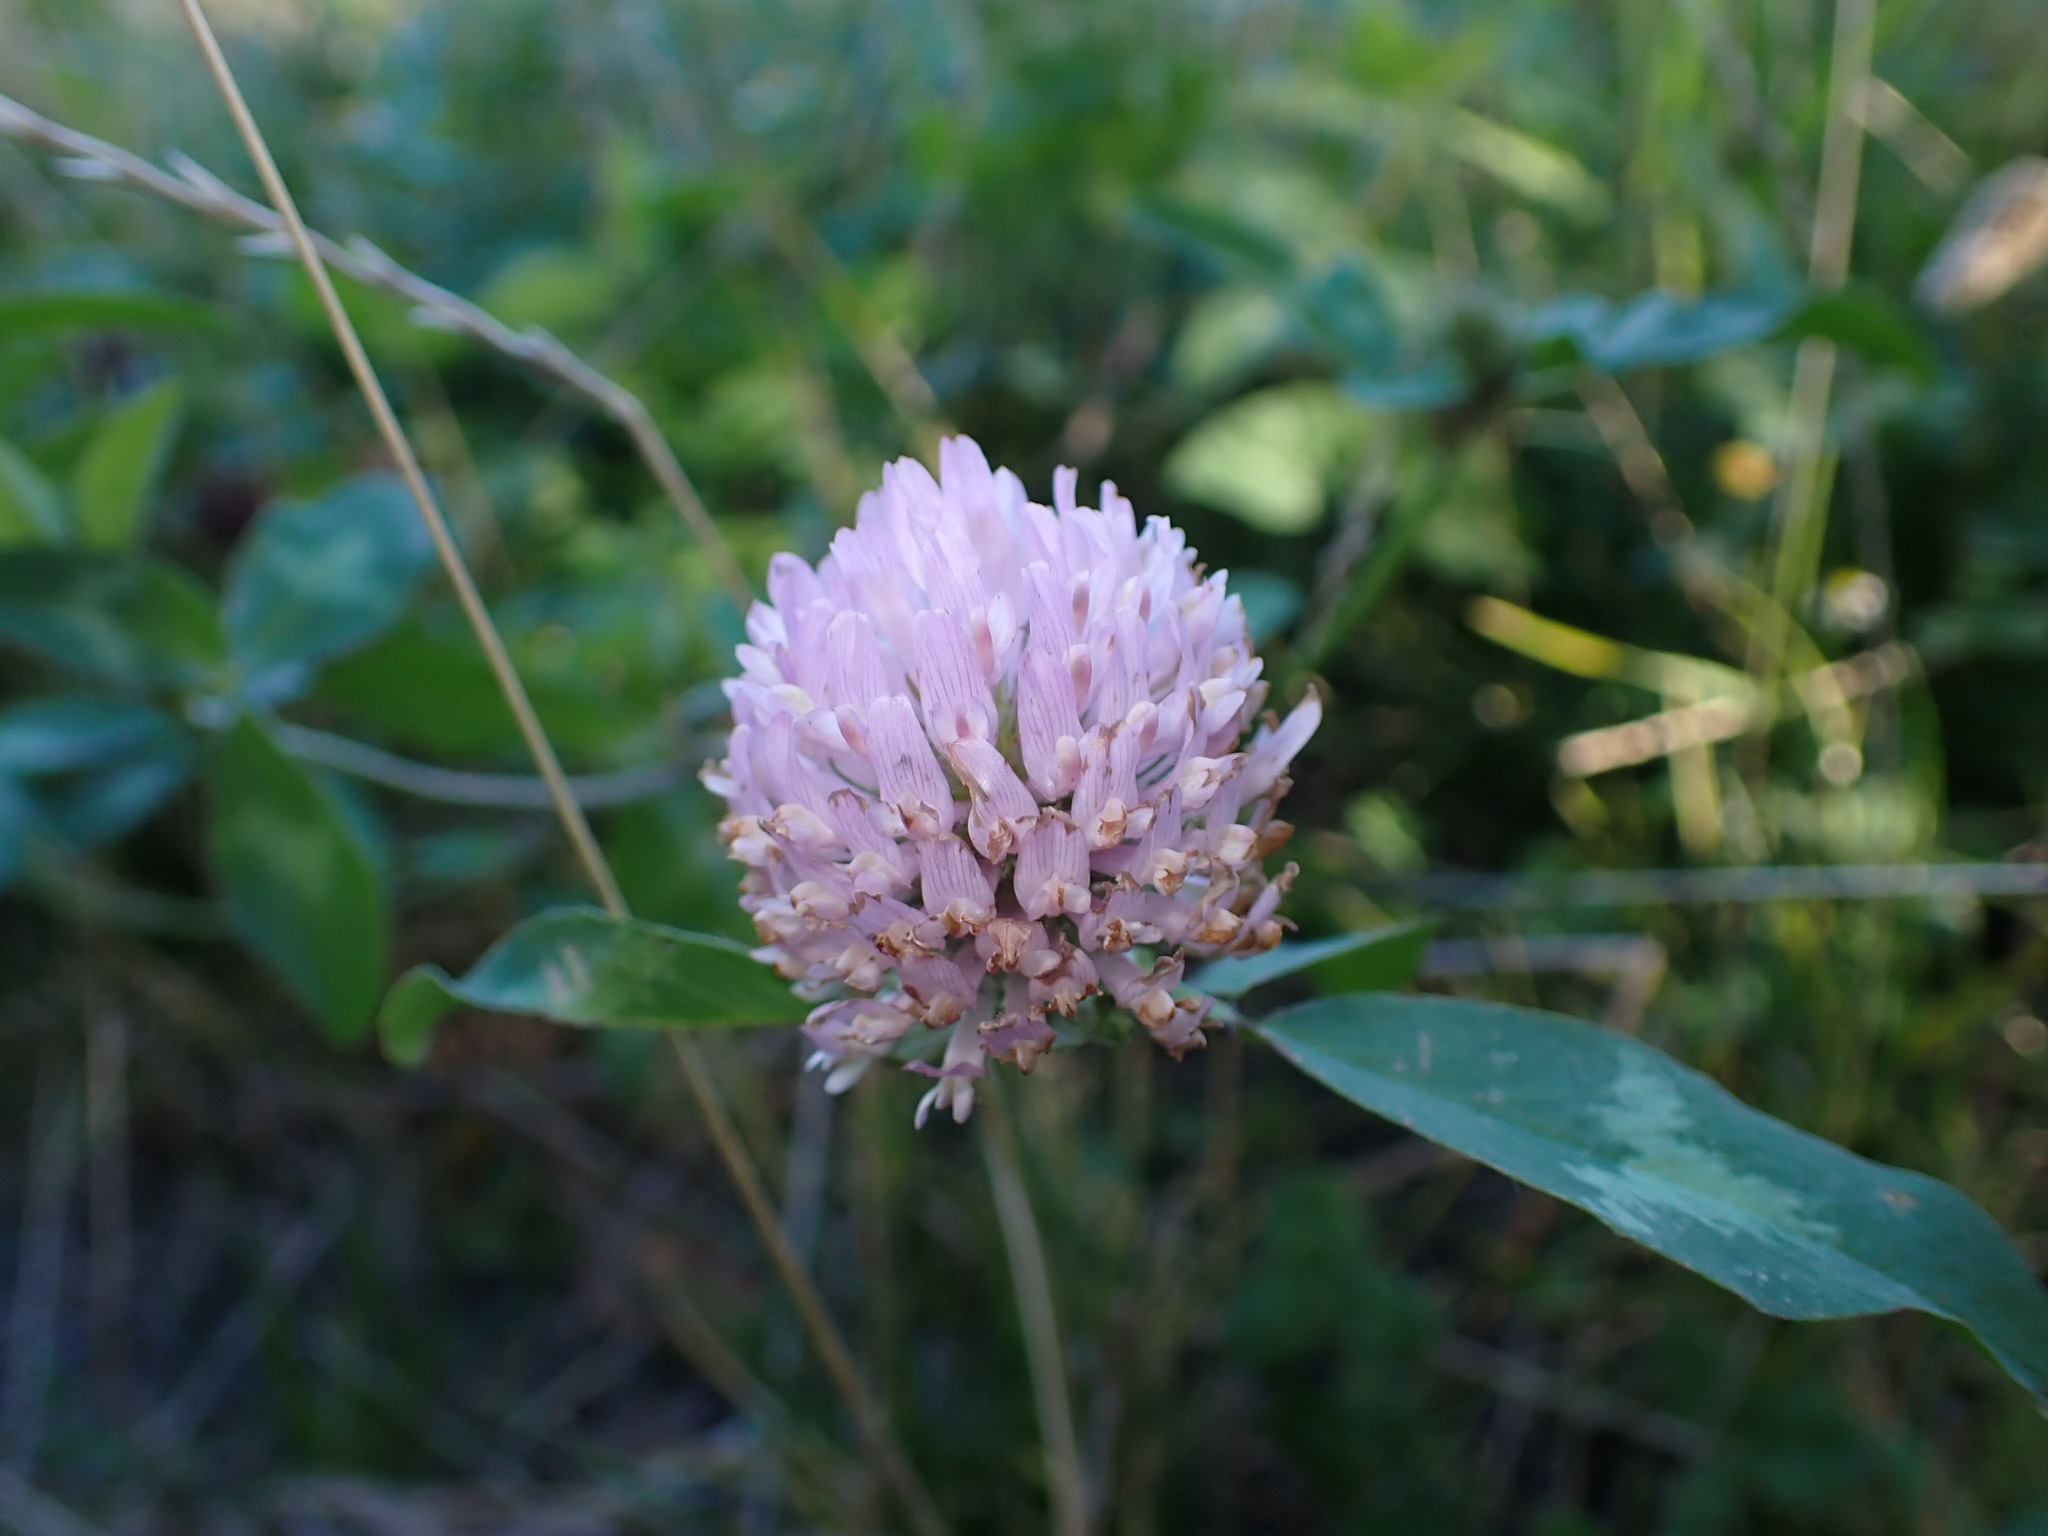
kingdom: Plantae
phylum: Tracheophyta
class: Magnoliopsida
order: Fabales
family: Fabaceae
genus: Trifolium
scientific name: Trifolium pratense
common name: Red clover
